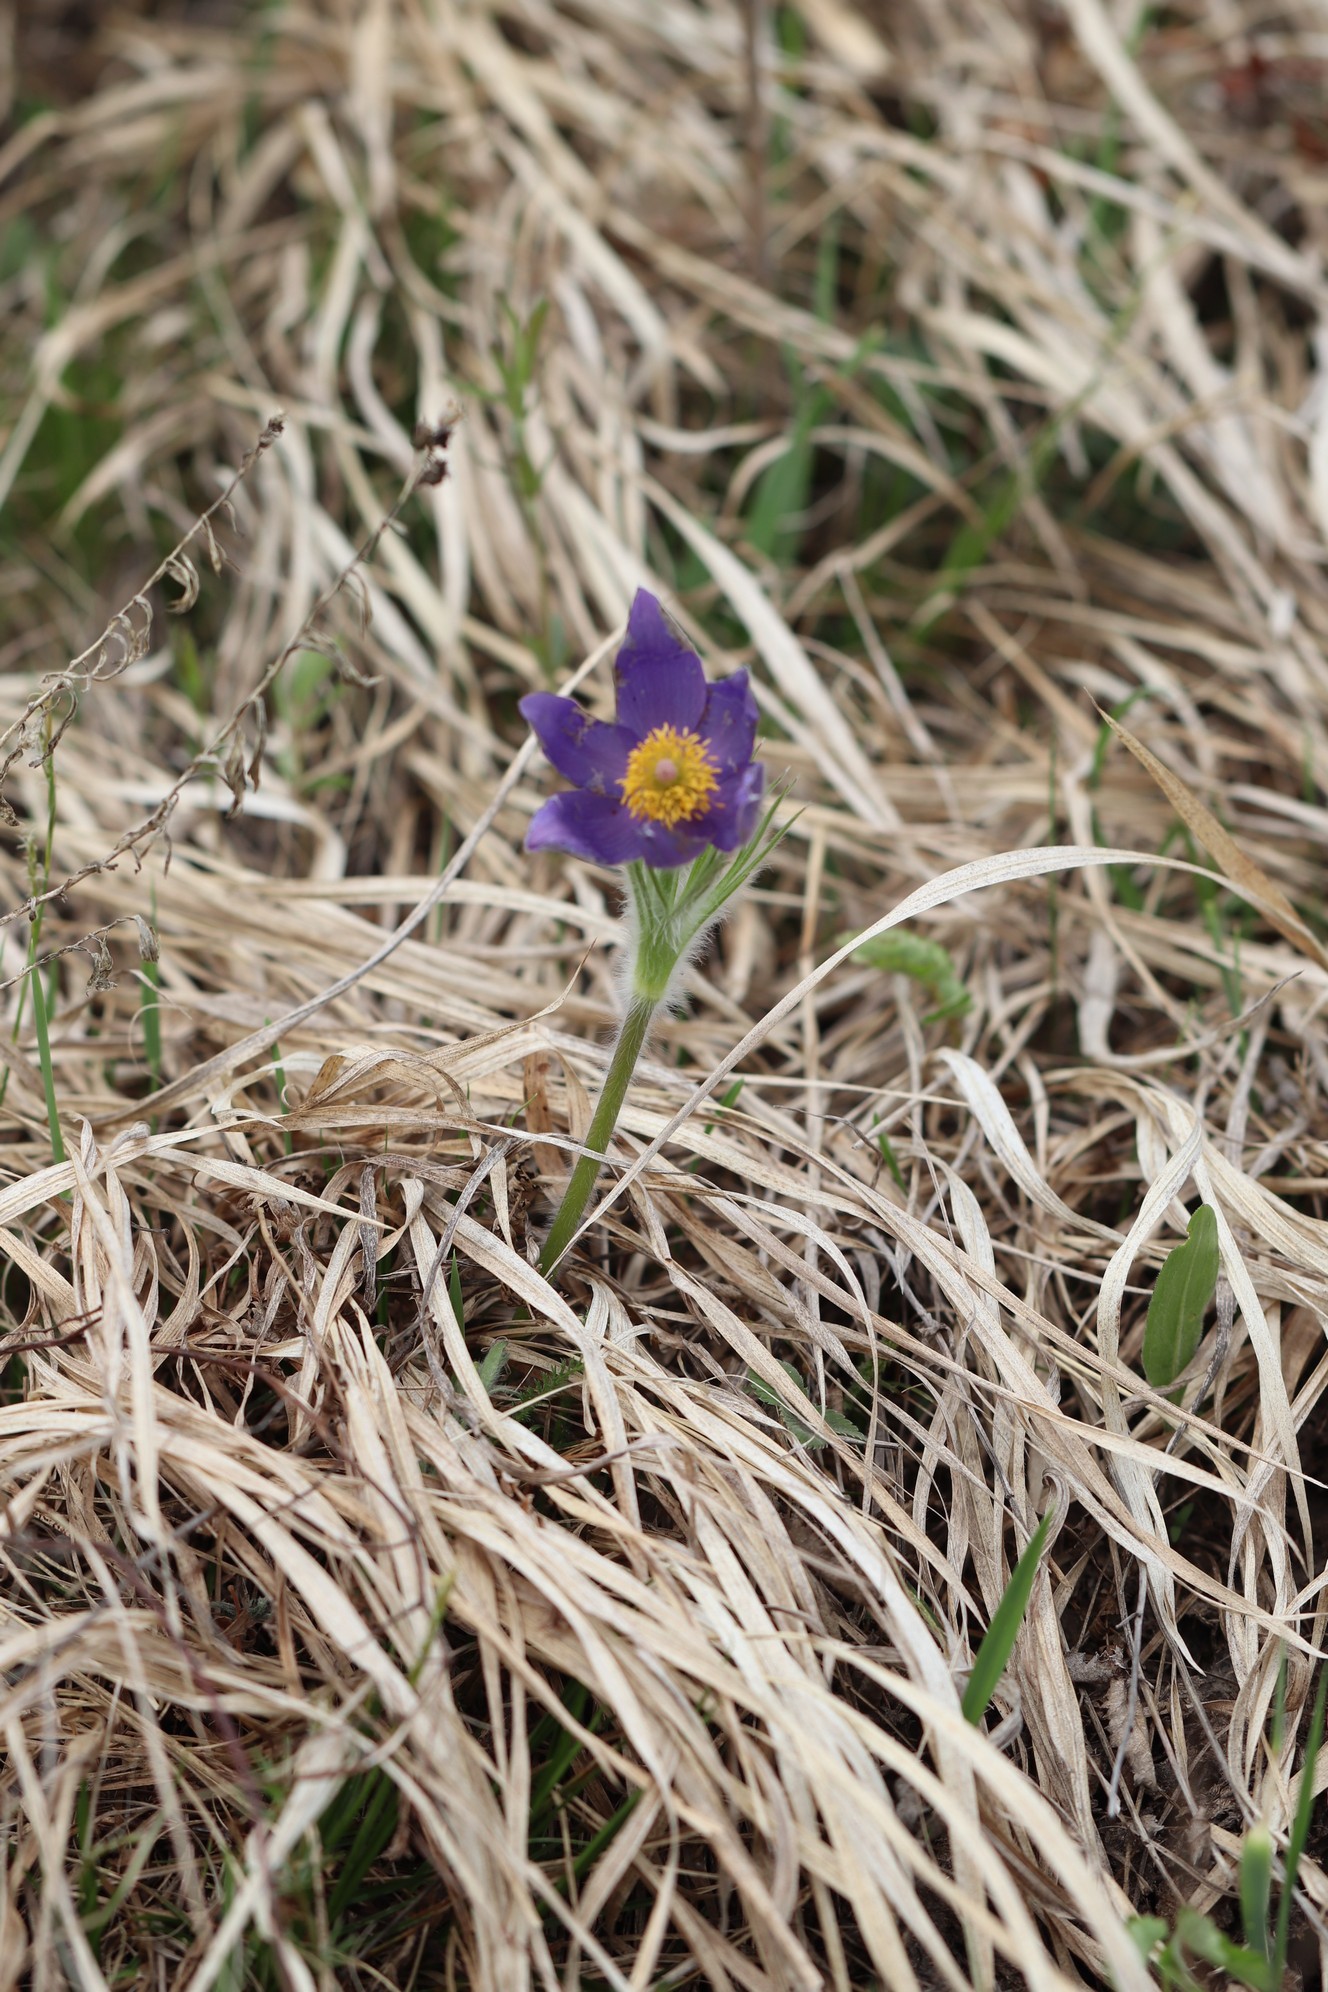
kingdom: Plantae
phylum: Tracheophyta
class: Magnoliopsida
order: Ranunculales
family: Ranunculaceae
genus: Pulsatilla
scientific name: Pulsatilla patens
